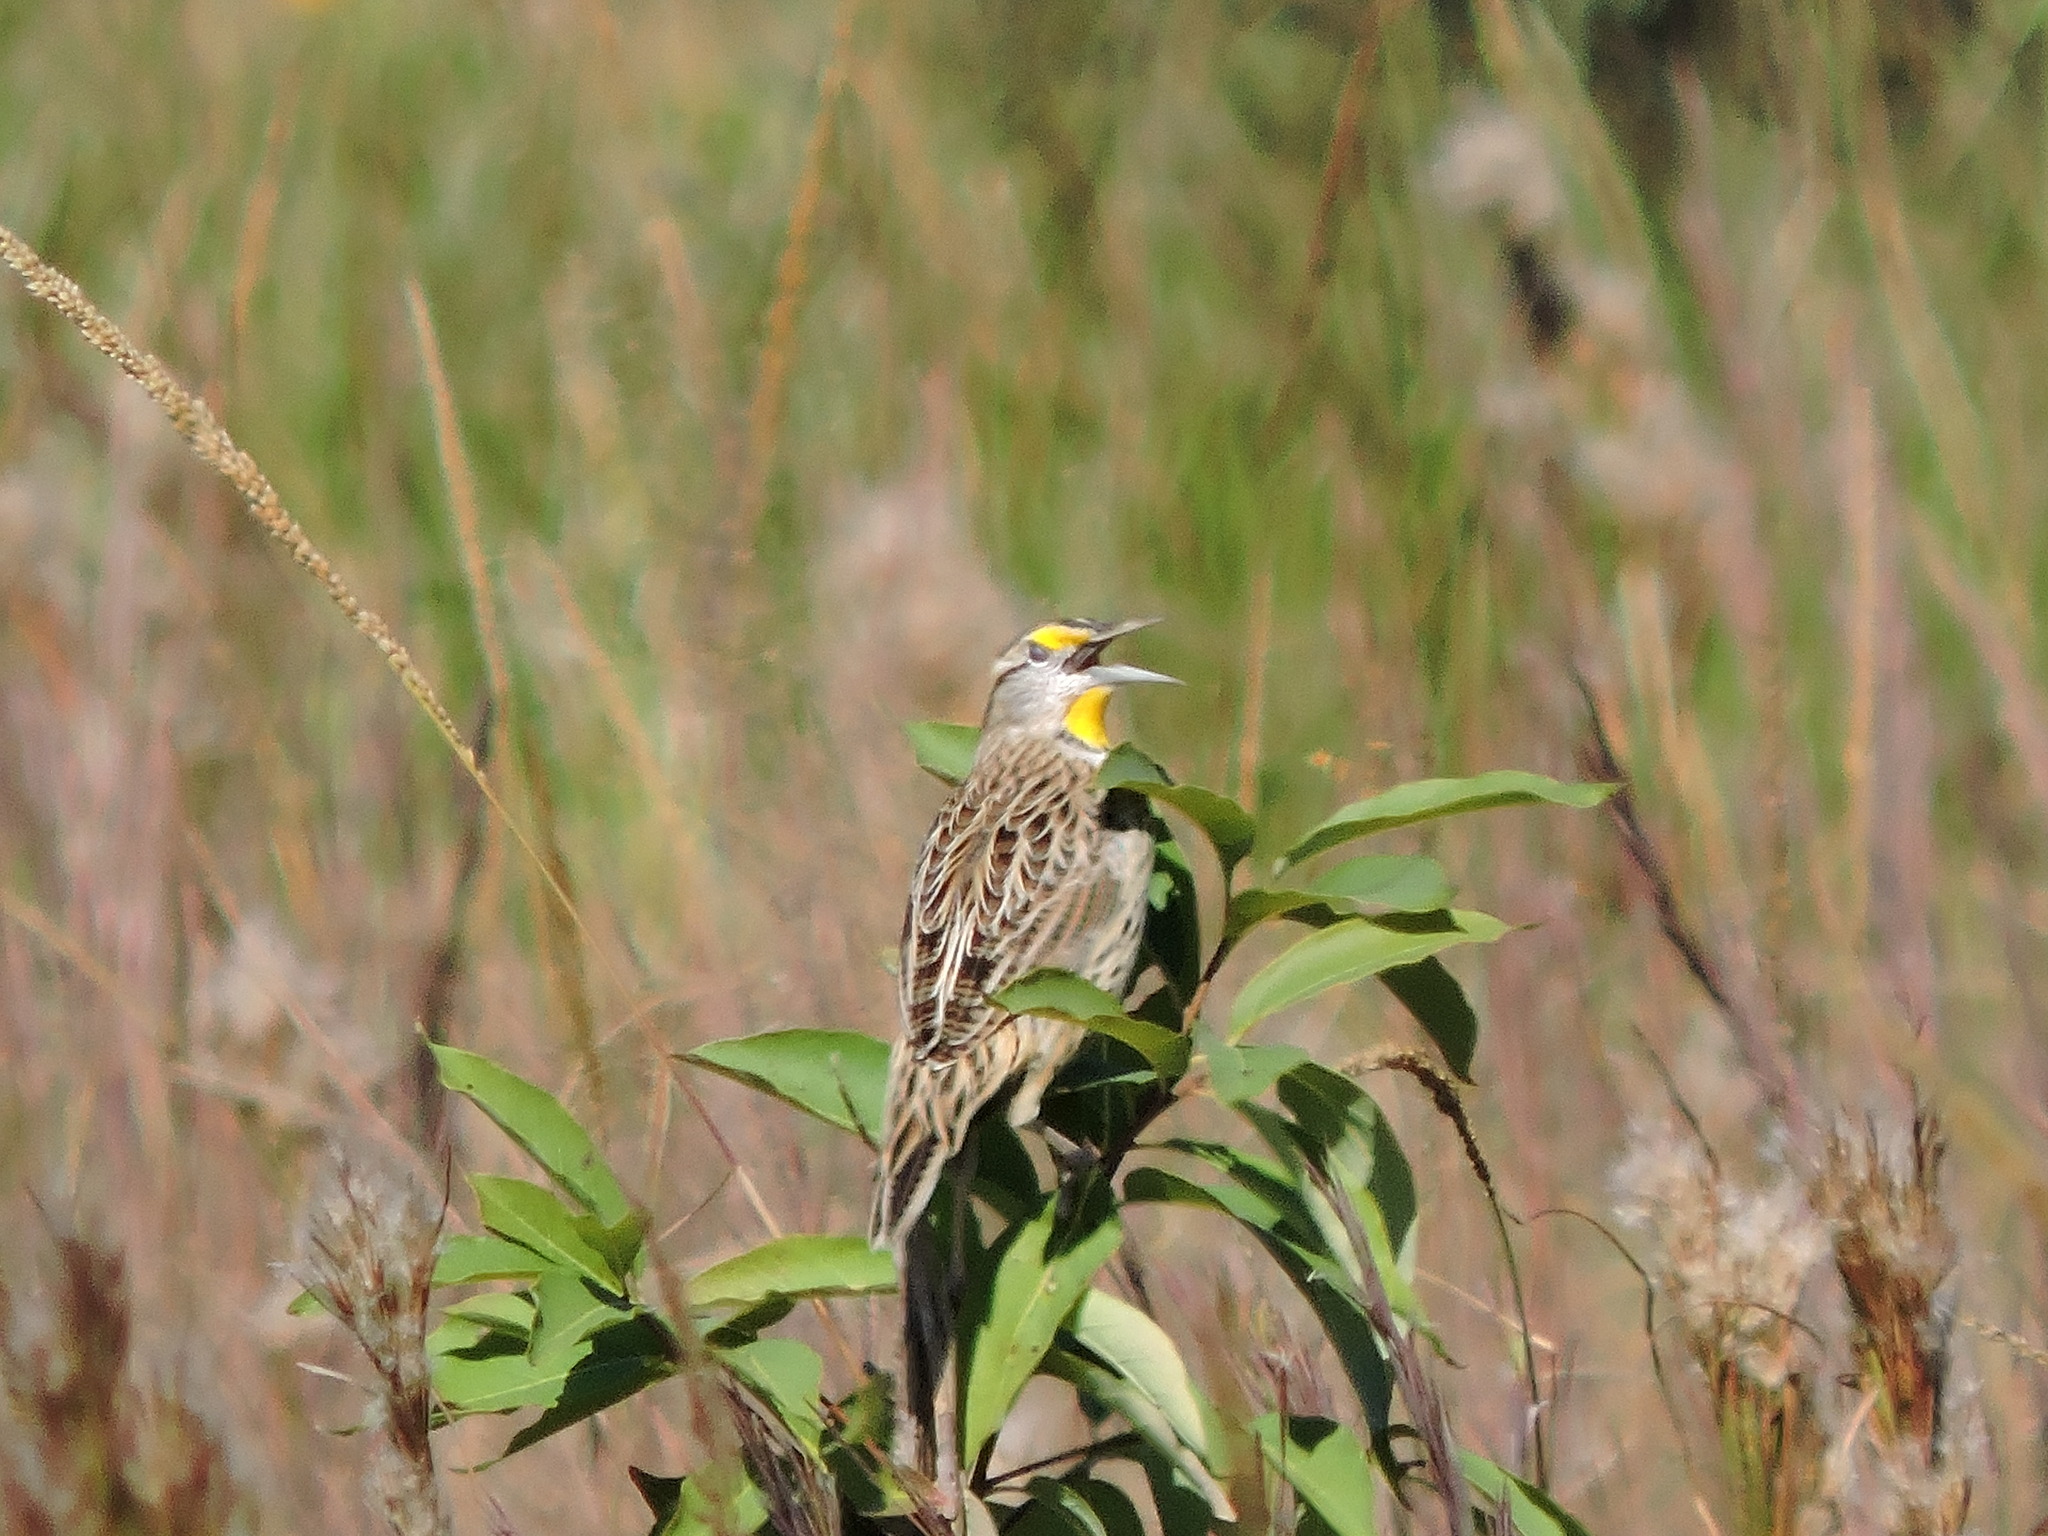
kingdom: Animalia
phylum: Chordata
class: Aves
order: Passeriformes
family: Icteridae
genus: Sturnella
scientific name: Sturnella magna
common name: Eastern meadowlark
